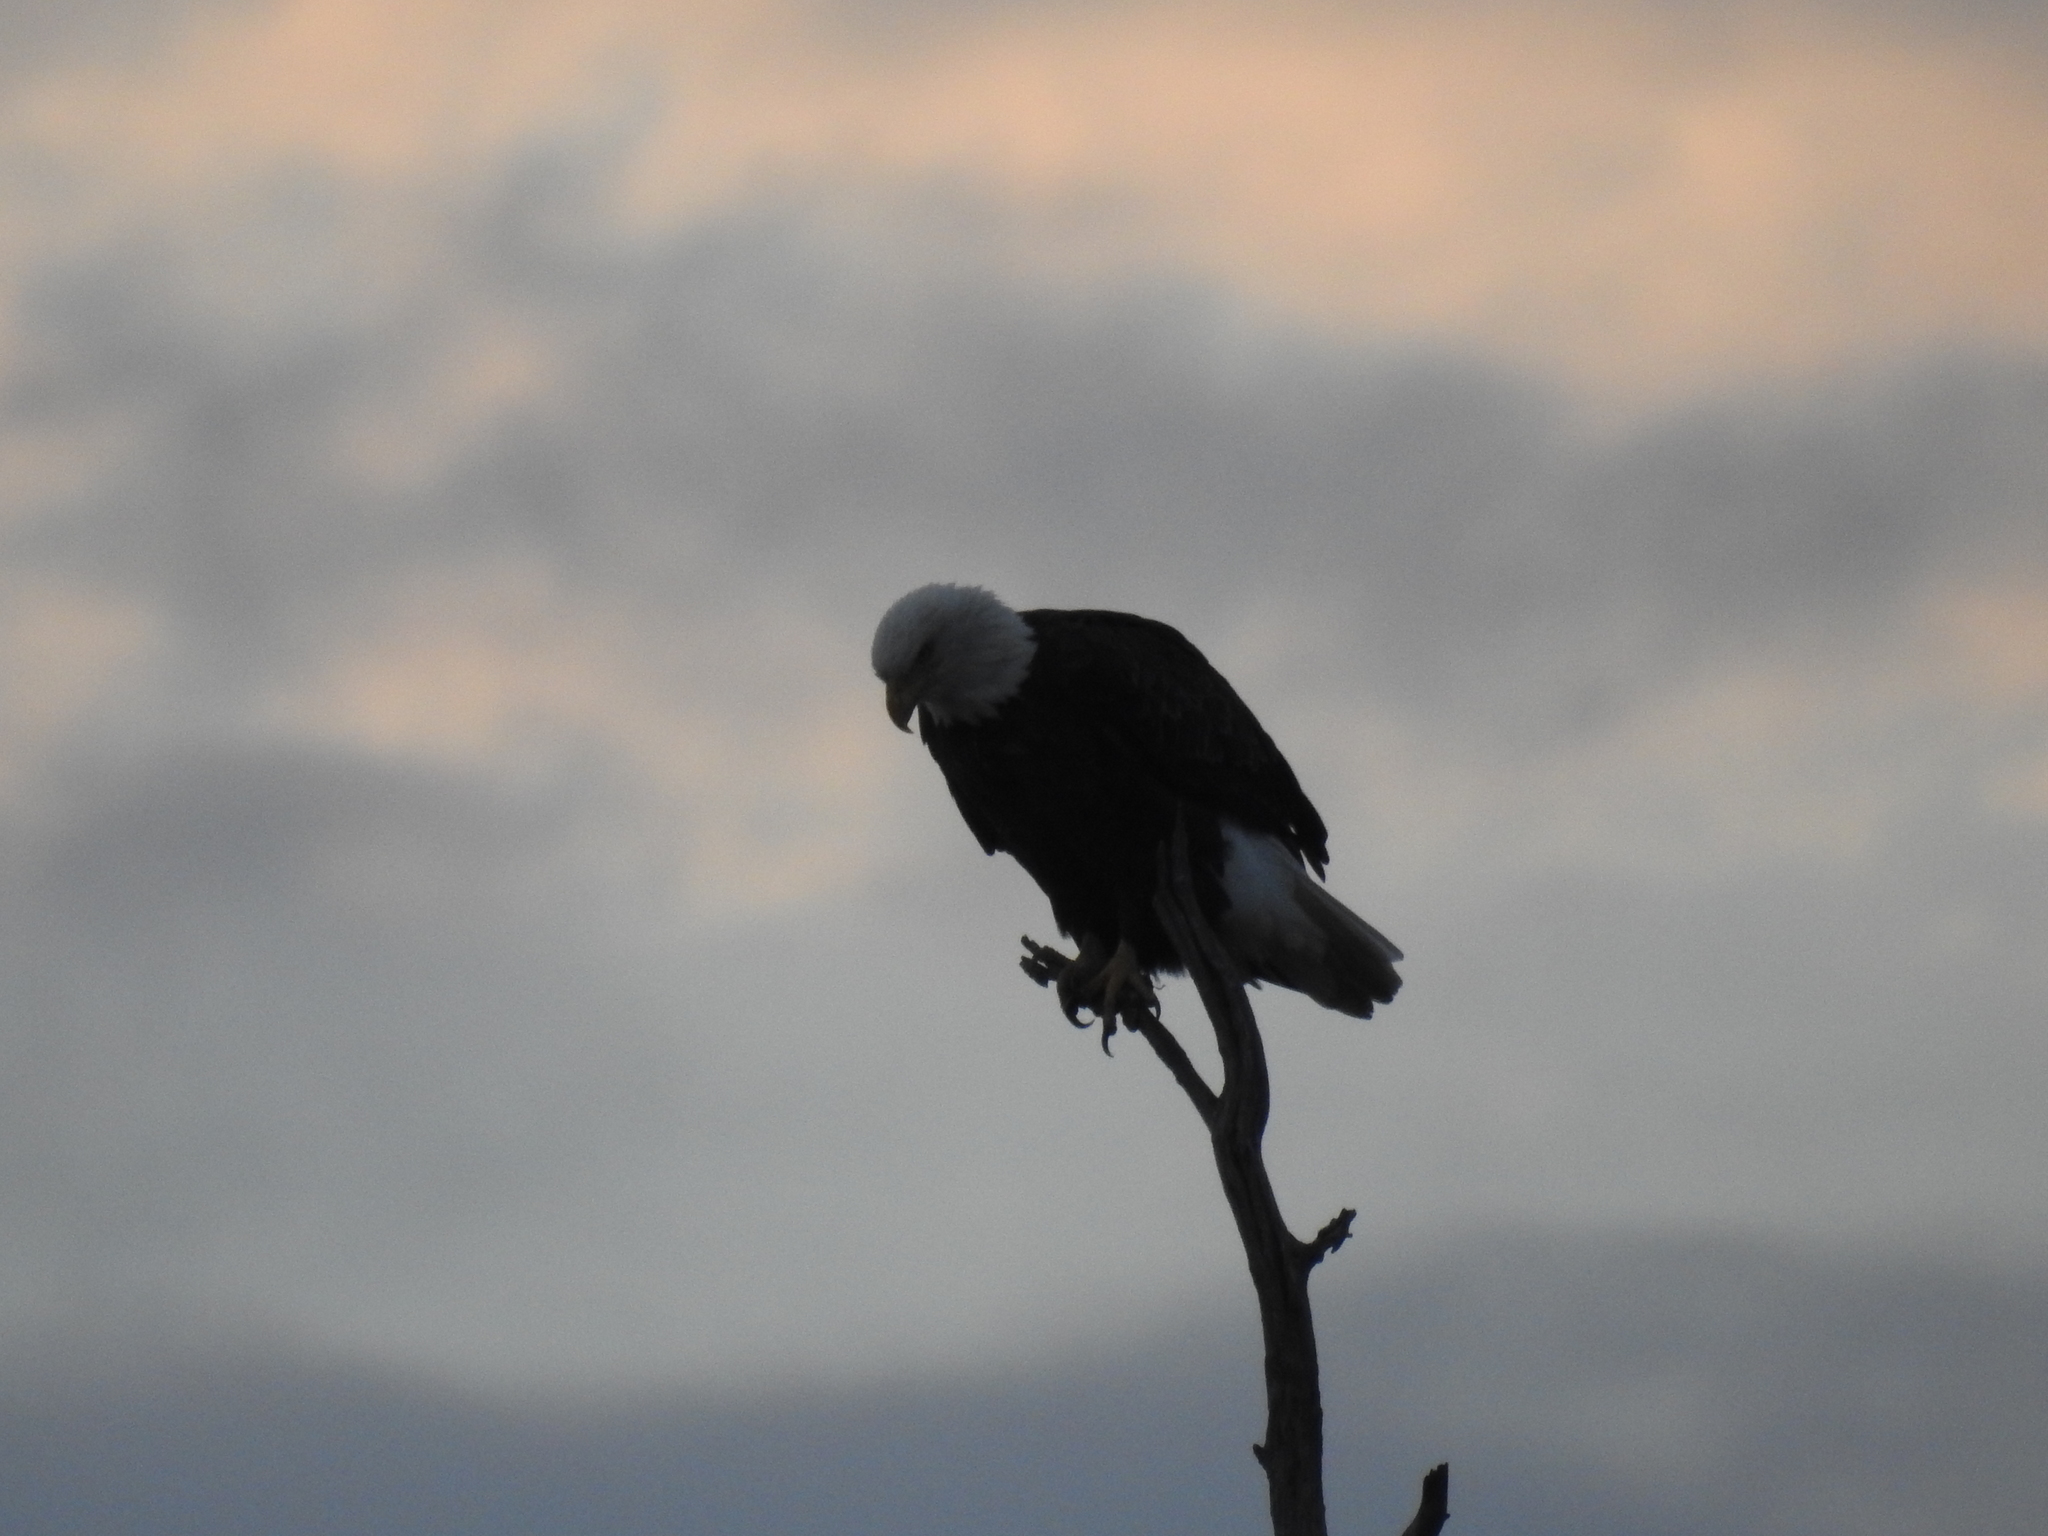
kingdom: Animalia
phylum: Chordata
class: Aves
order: Accipitriformes
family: Accipitridae
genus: Haliaeetus
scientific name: Haliaeetus leucocephalus
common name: Bald eagle
